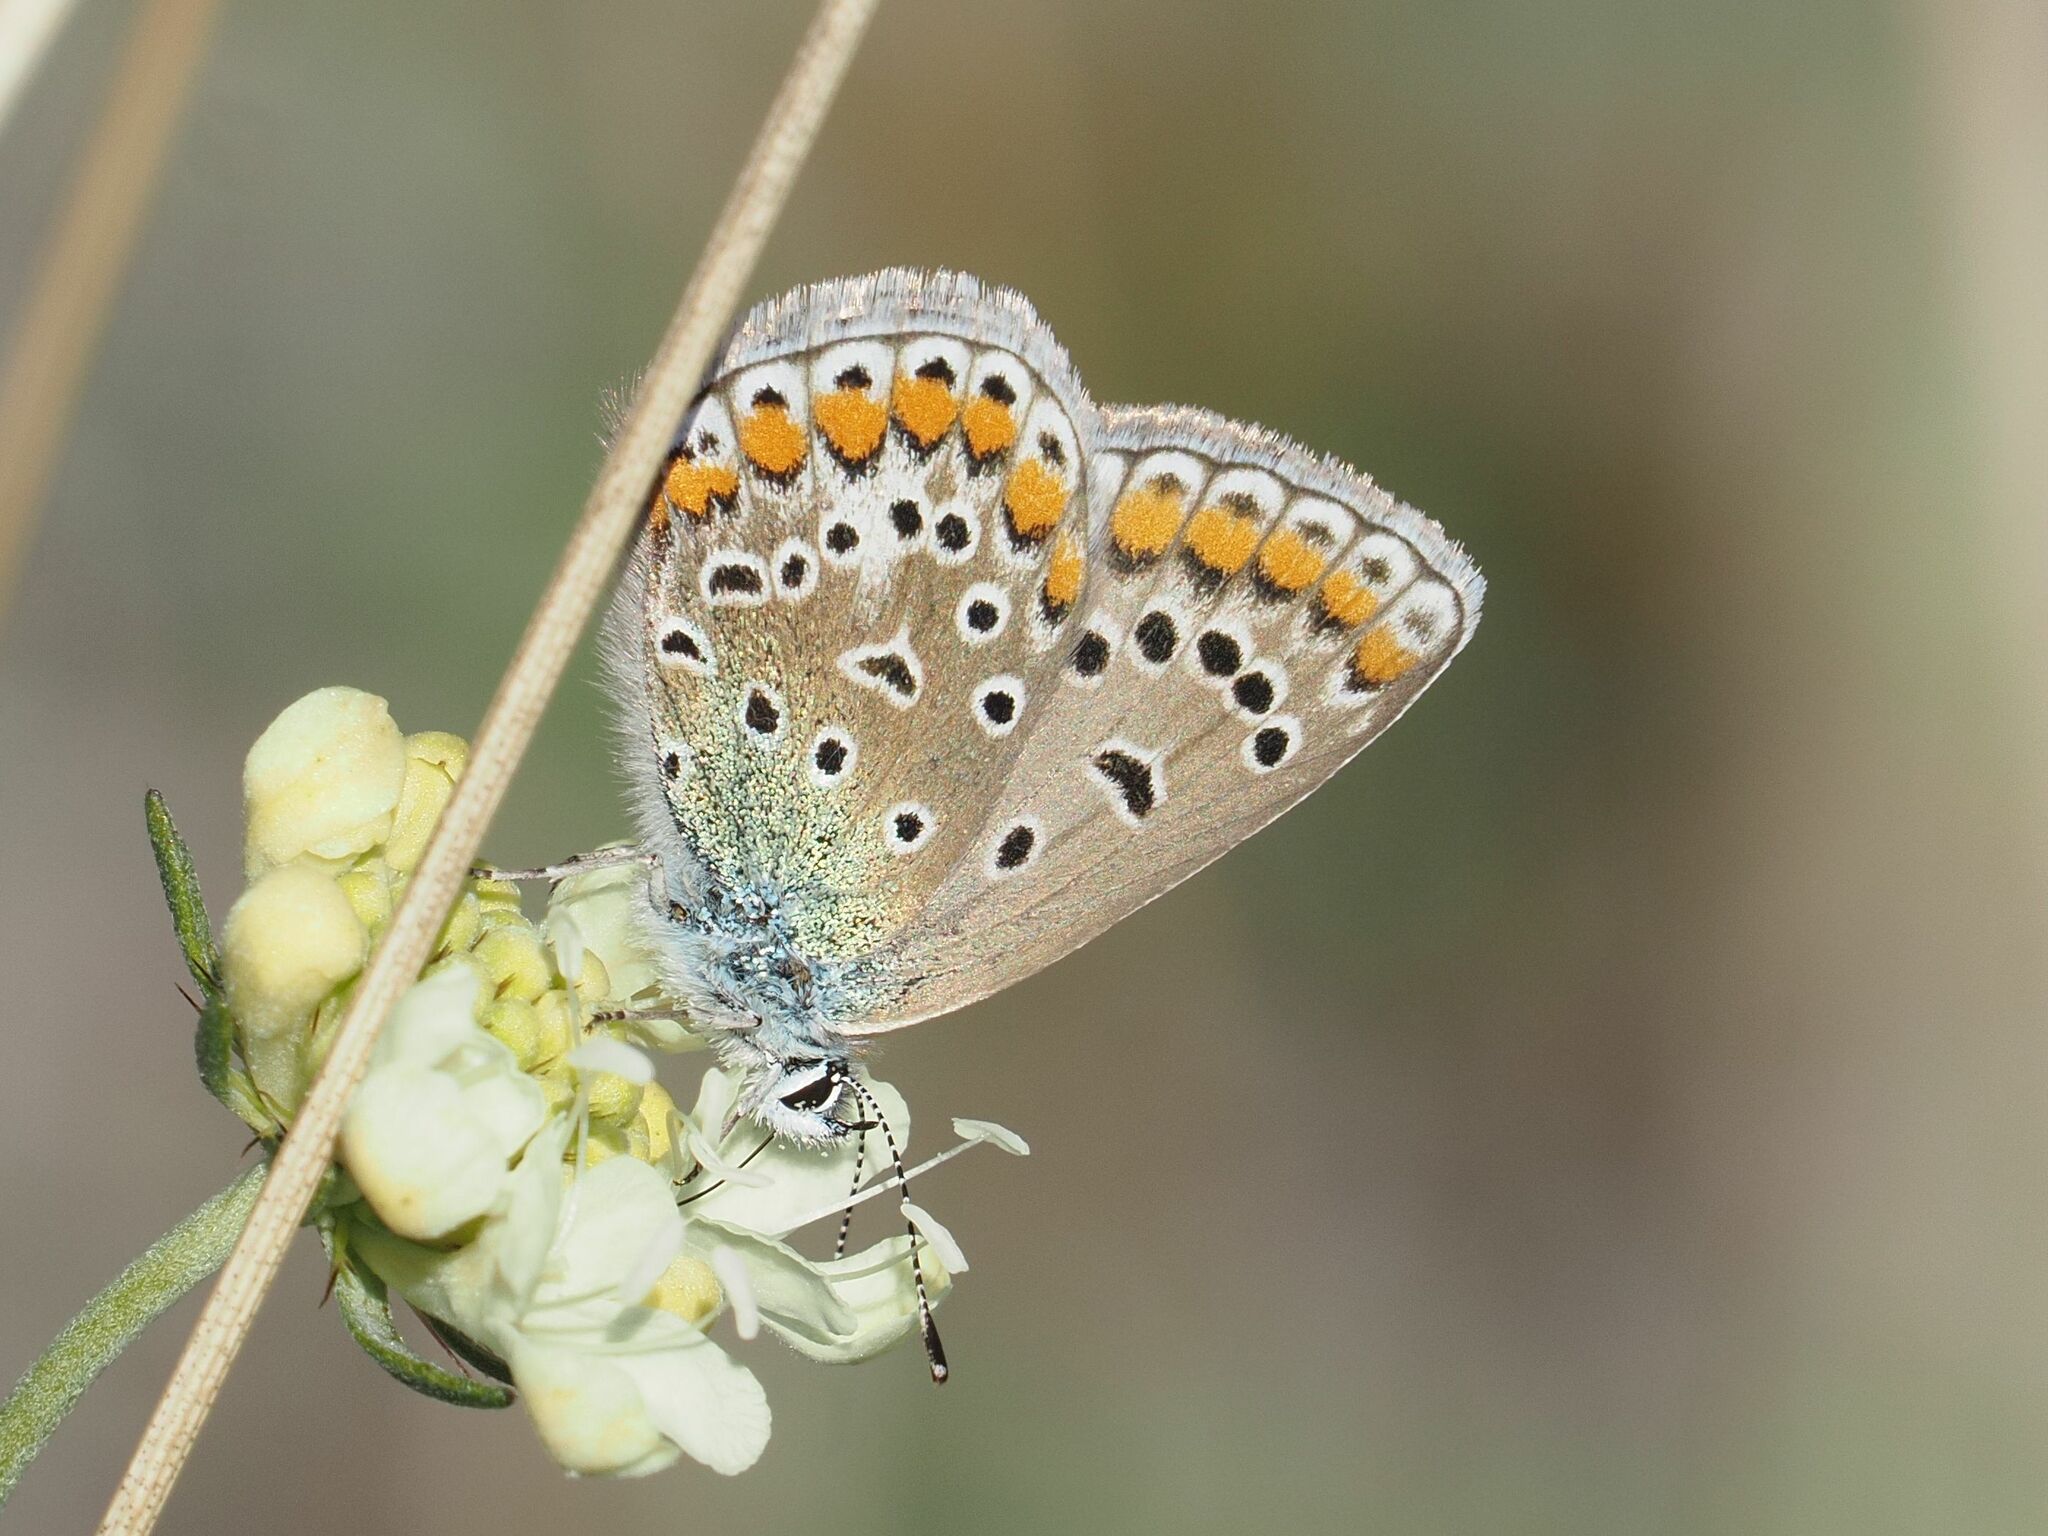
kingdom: Animalia
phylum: Arthropoda
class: Insecta
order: Lepidoptera
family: Lycaenidae
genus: Polyommatus
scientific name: Polyommatus icarus
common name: Common blue
